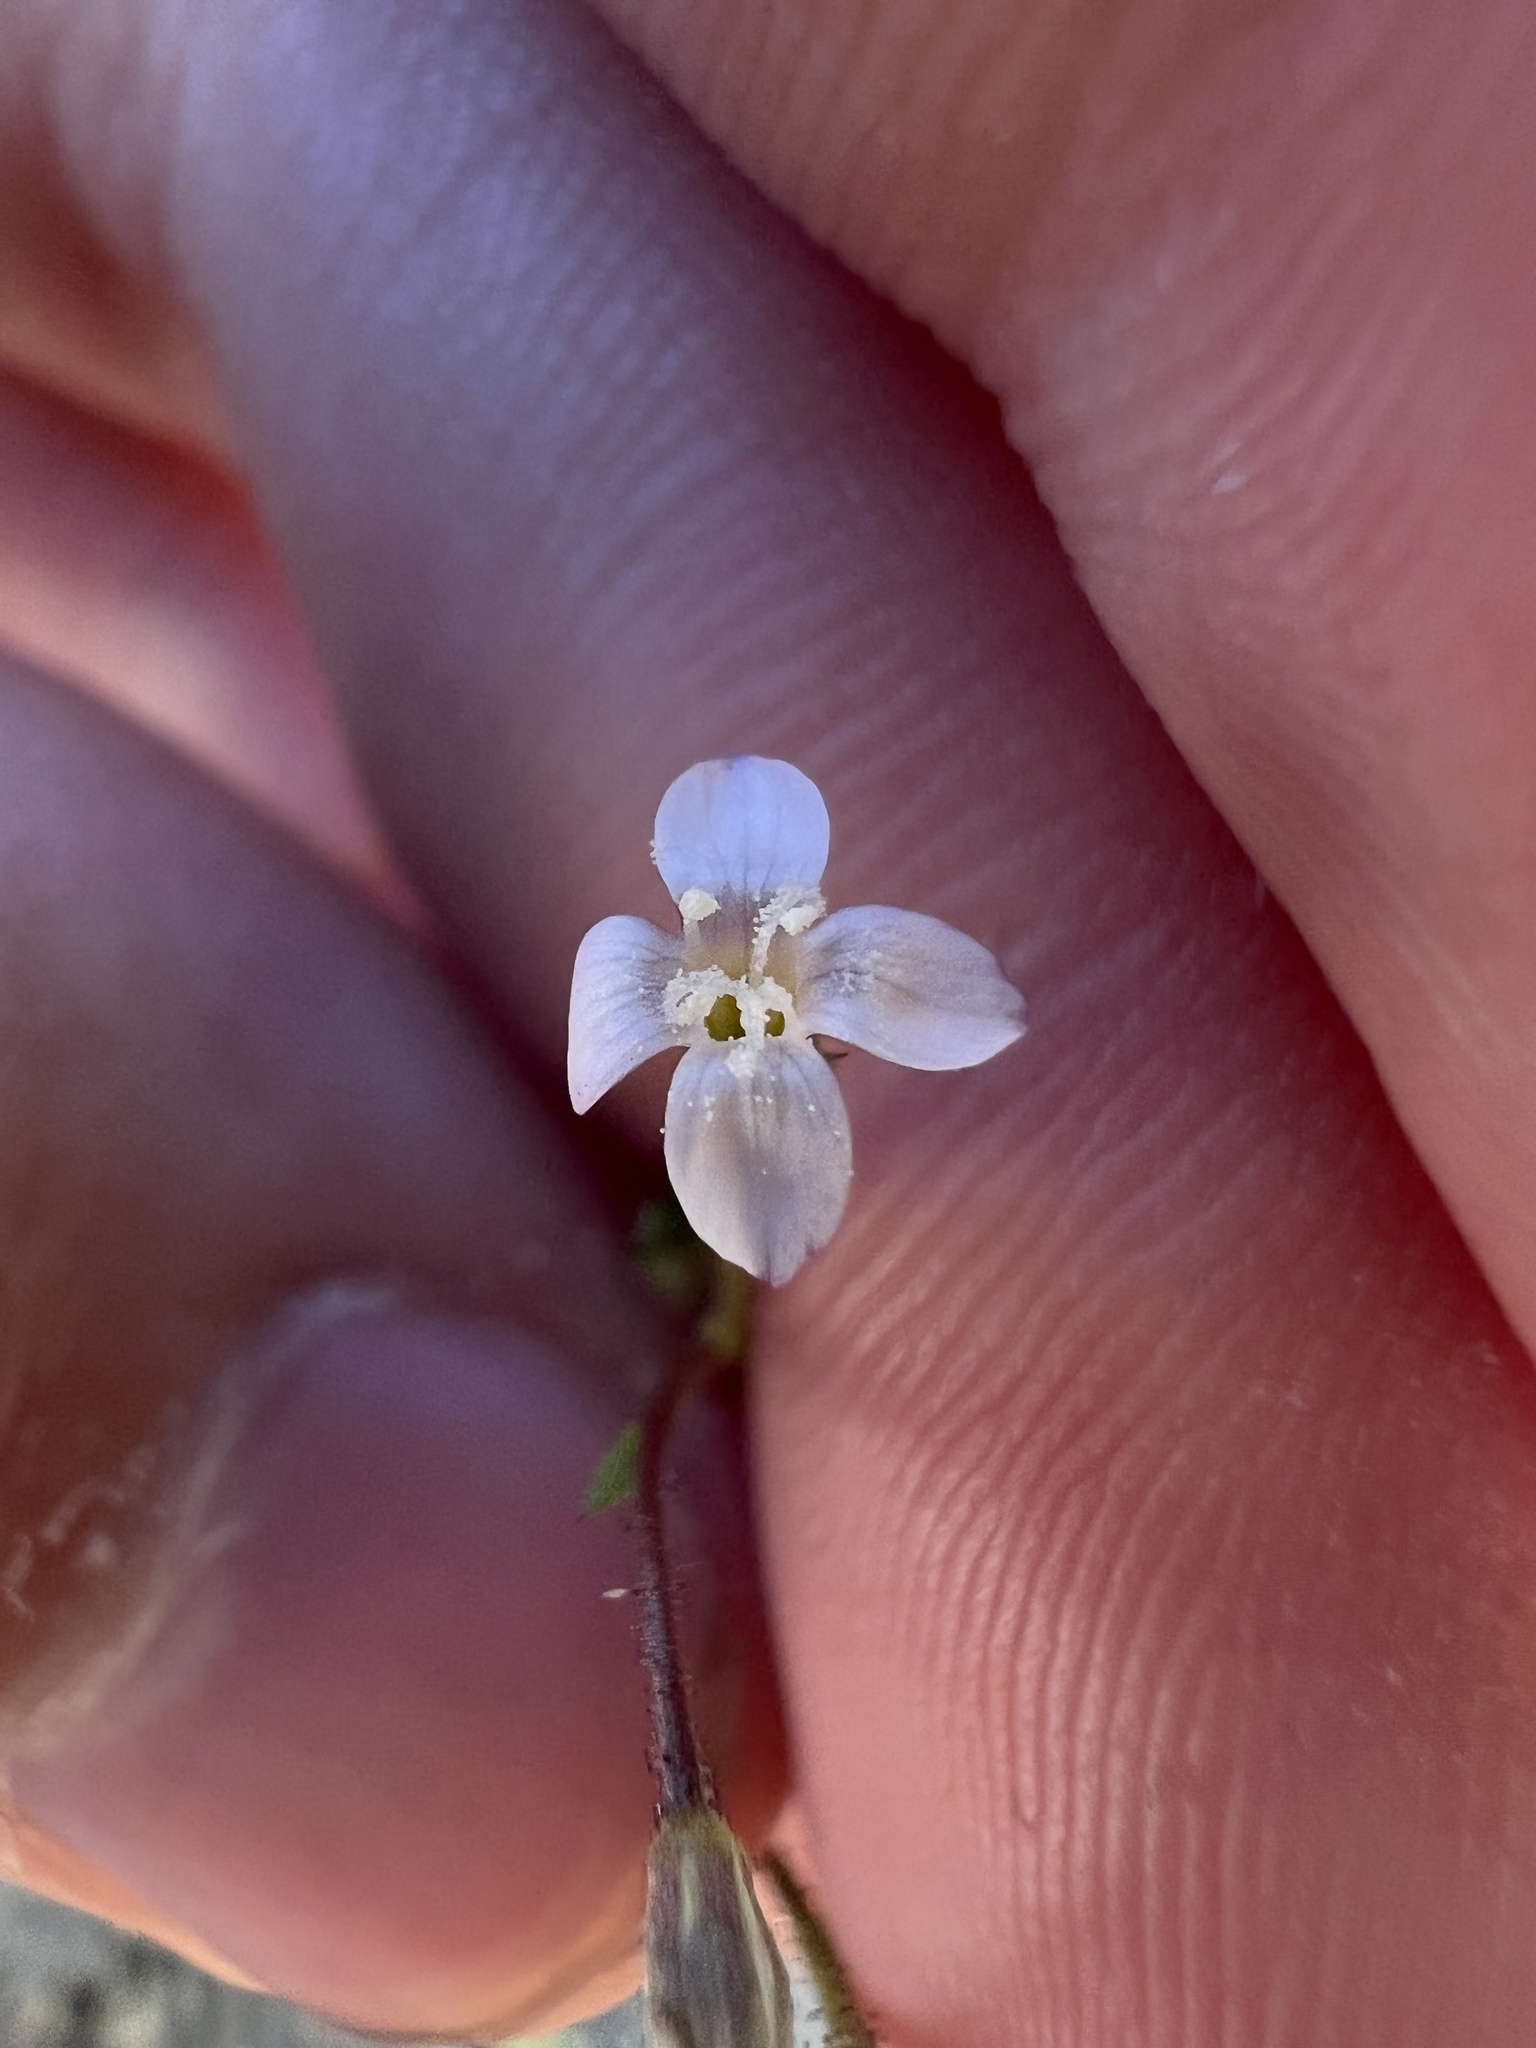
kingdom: Plantae
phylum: Tracheophyta
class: Magnoliopsida
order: Ericales
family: Polemoniaceae
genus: Gilia
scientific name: Gilia clokeyi
